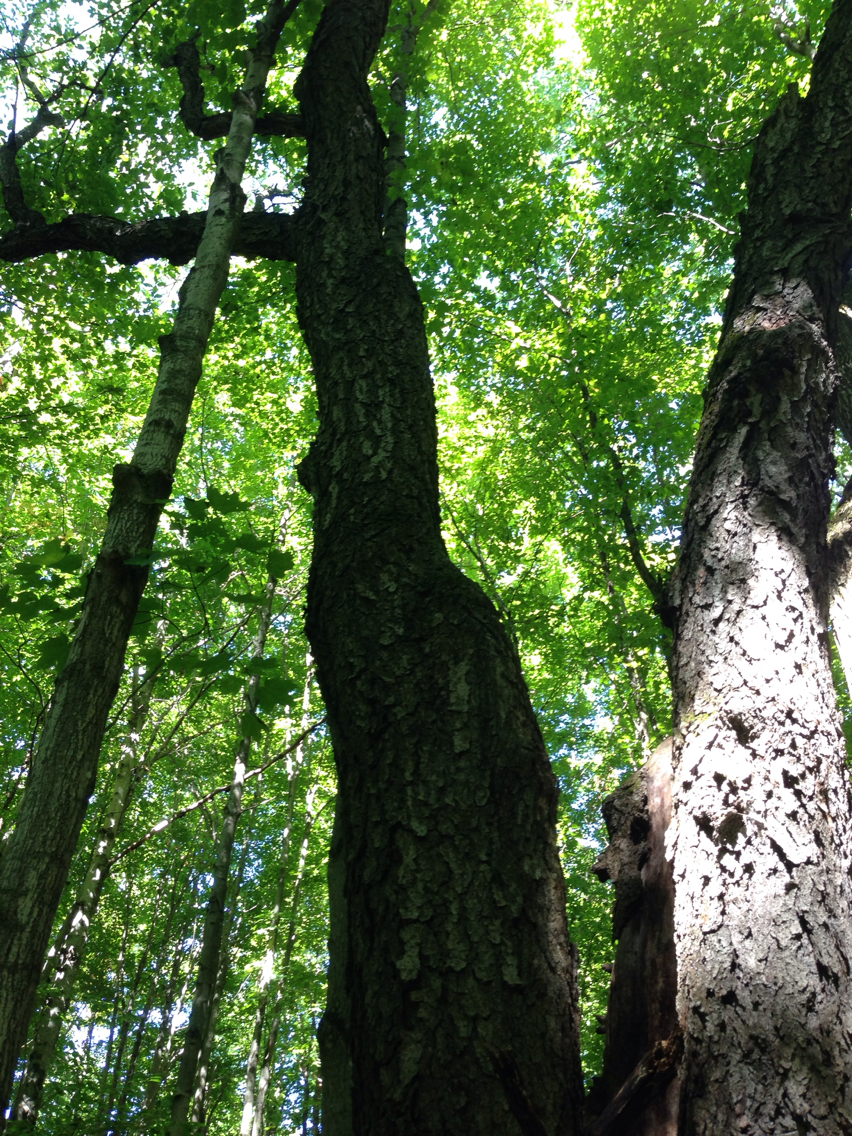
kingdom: Plantae
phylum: Tracheophyta
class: Magnoliopsida
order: Rosales
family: Rosaceae
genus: Prunus
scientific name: Prunus serotina
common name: Black cherry
